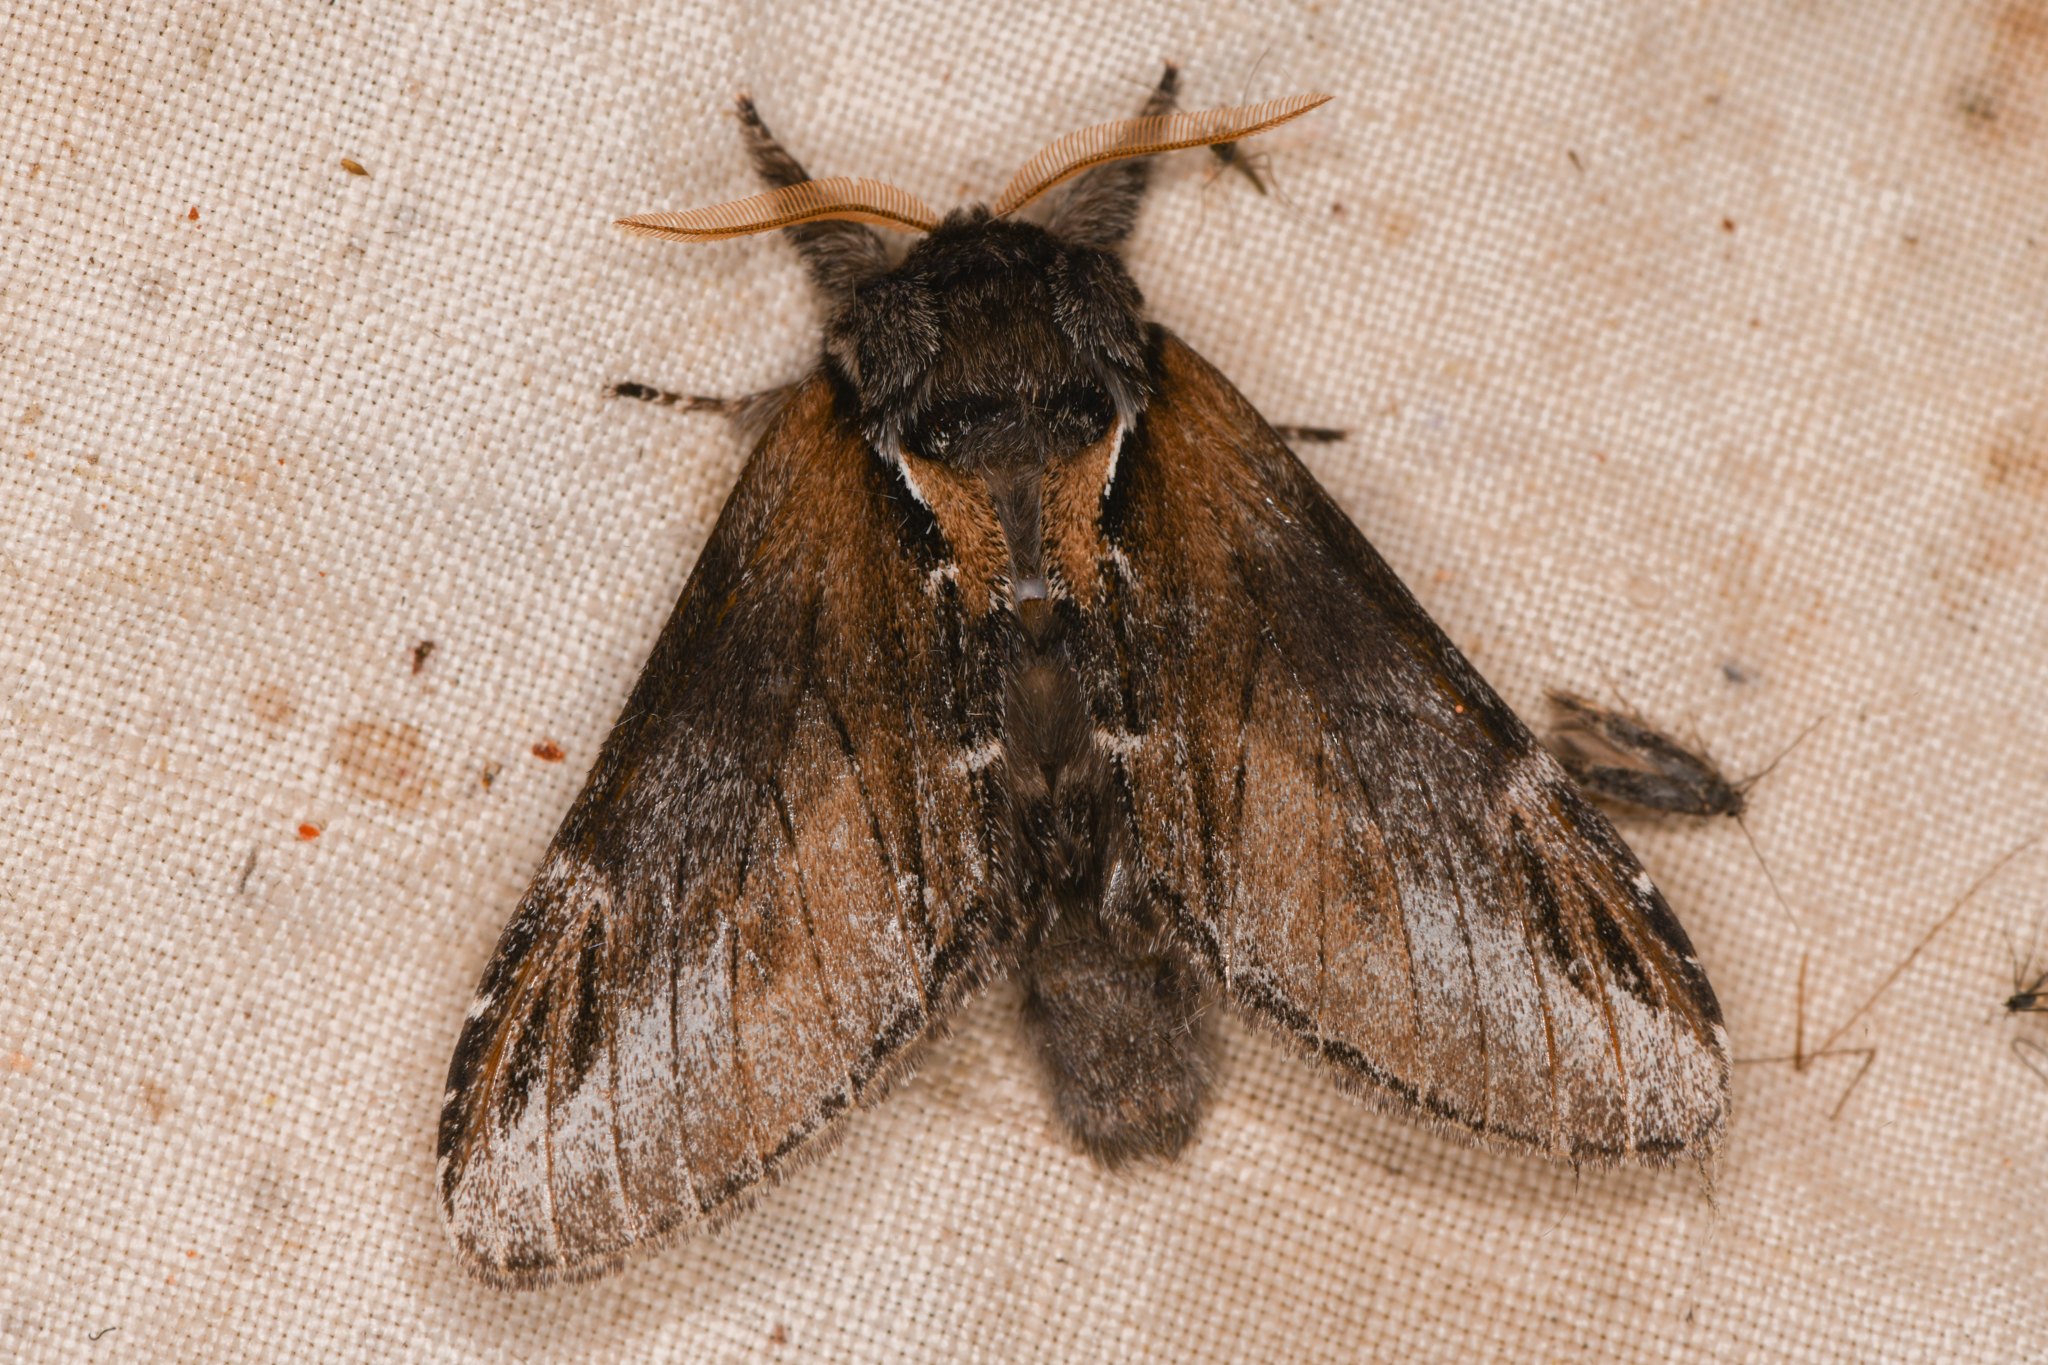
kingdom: Animalia
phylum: Arthropoda
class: Insecta
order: Lepidoptera
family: Notodontidae
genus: Pheosia
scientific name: Pheosia rimosa
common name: Black-rimmed prominent
